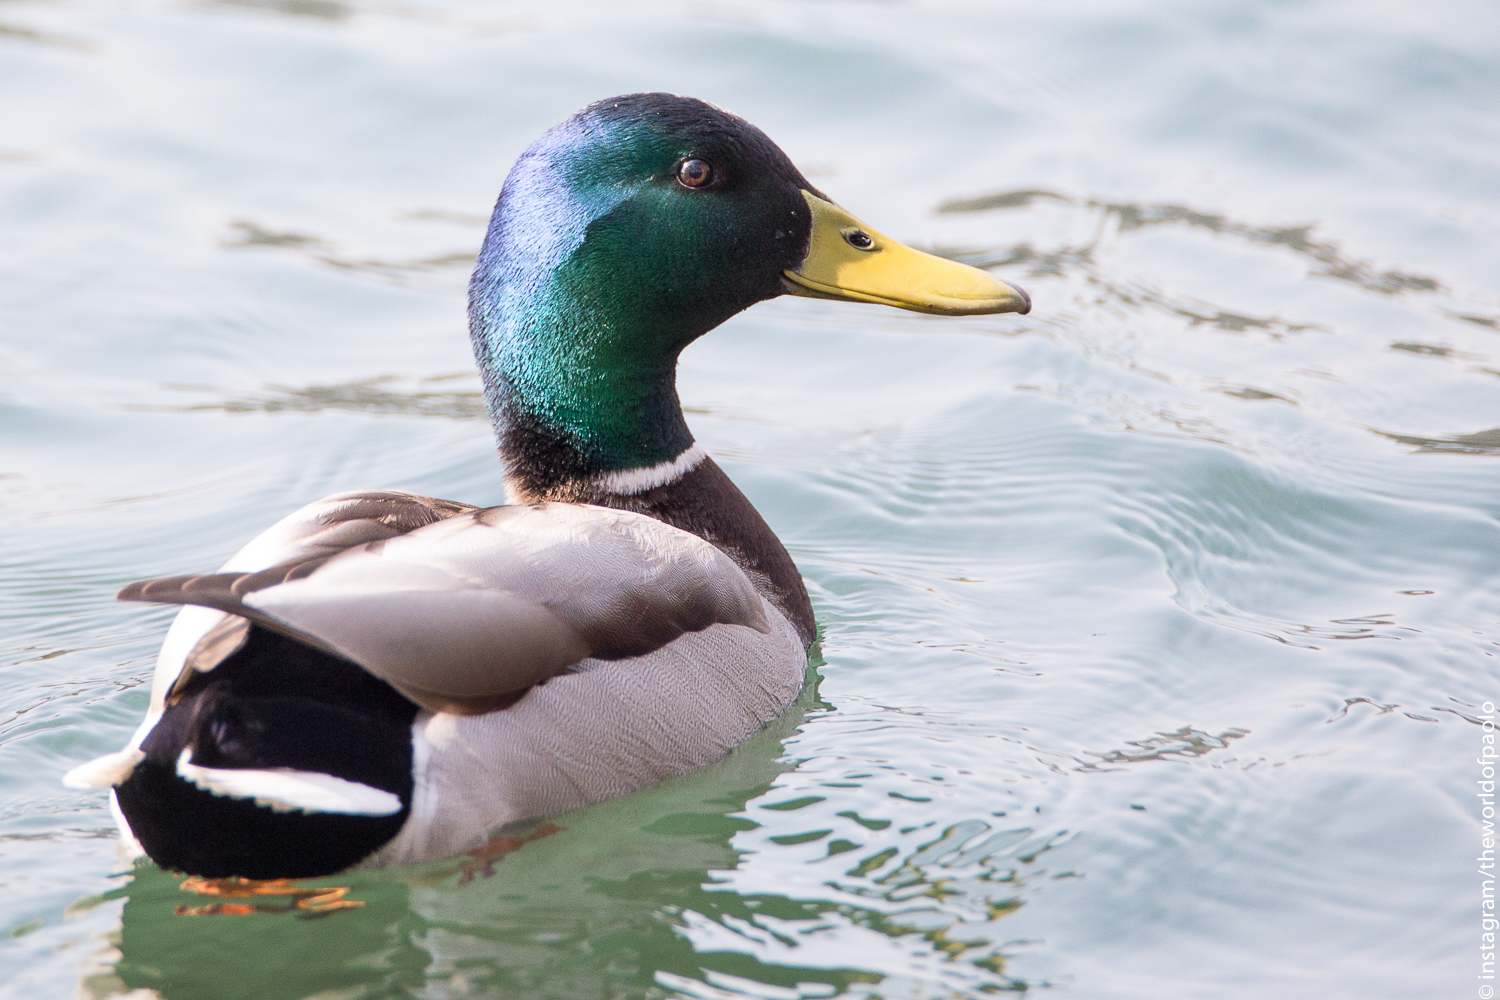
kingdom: Animalia
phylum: Chordata
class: Aves
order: Anseriformes
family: Anatidae
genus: Anas
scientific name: Anas platyrhynchos
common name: Mallard
